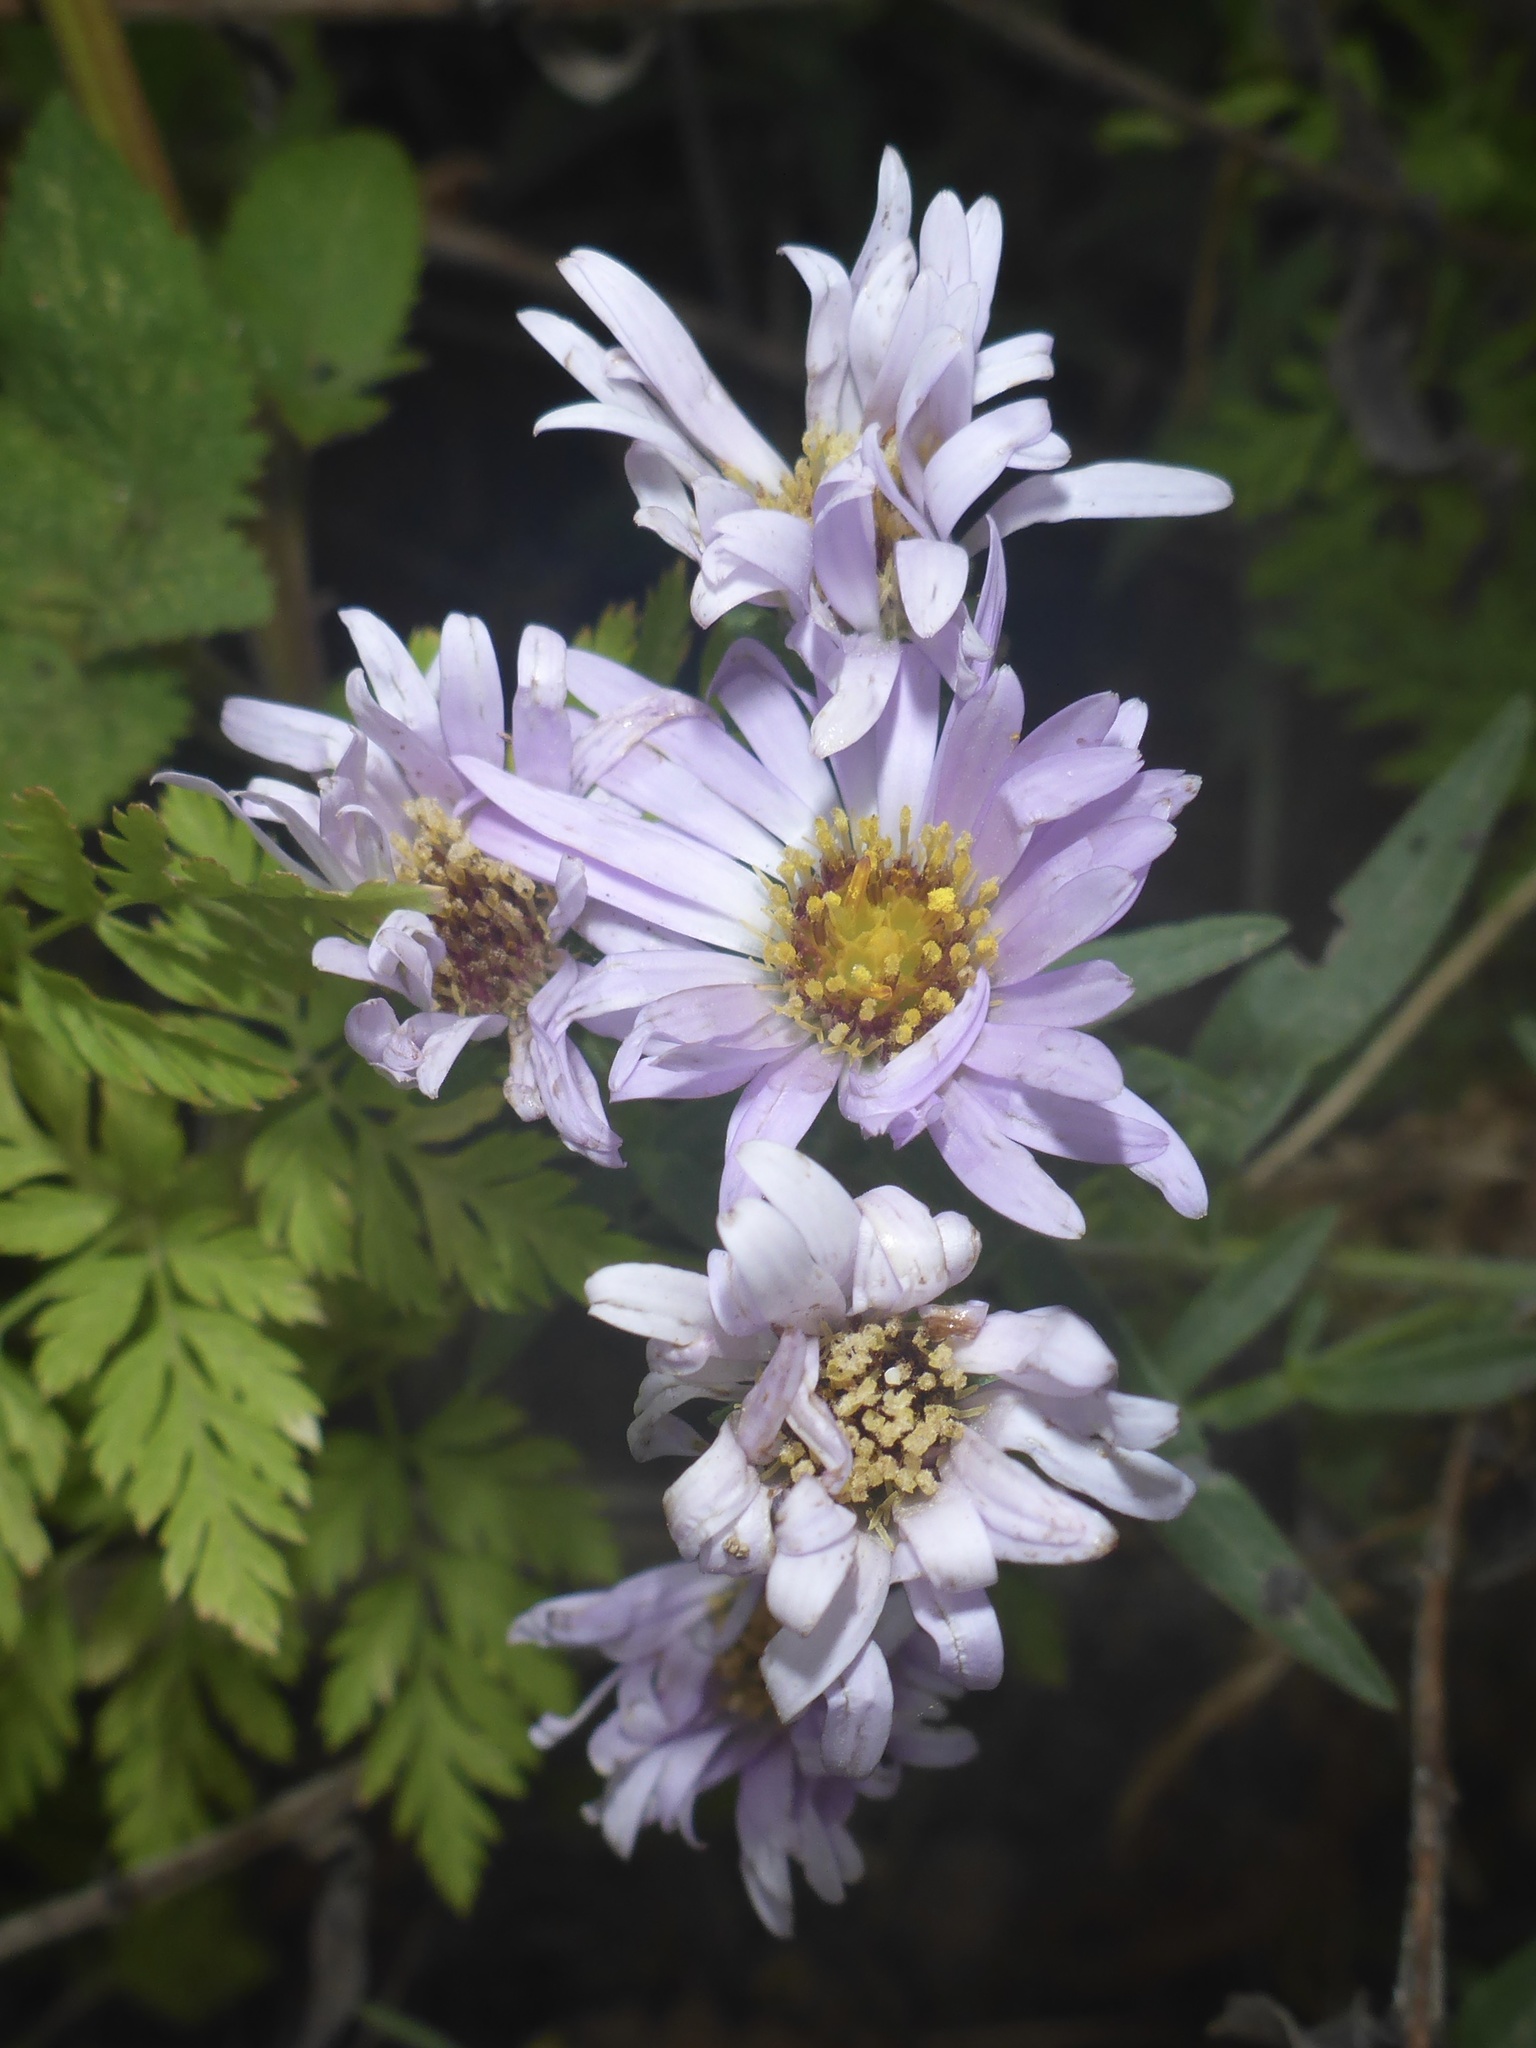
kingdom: Plantae
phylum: Tracheophyta
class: Magnoliopsida
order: Asterales
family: Asteraceae
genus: Symphyotrichum
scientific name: Symphyotrichum chilense
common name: Pacific aster
